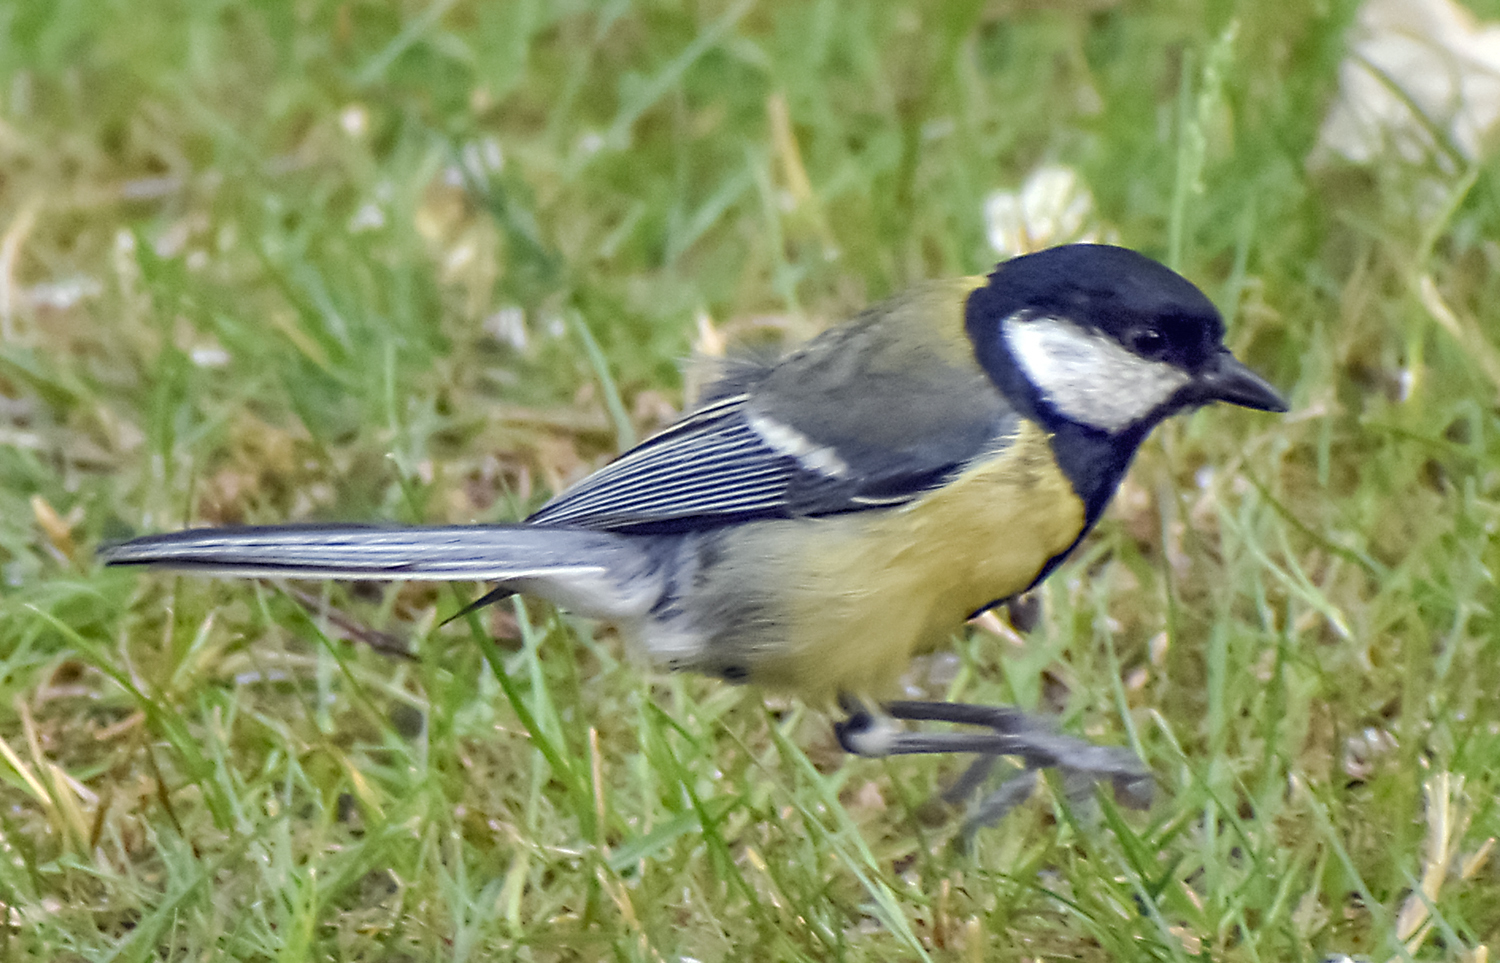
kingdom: Animalia
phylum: Chordata
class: Aves
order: Passeriformes
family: Paridae
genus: Parus
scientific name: Parus major
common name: Great tit
